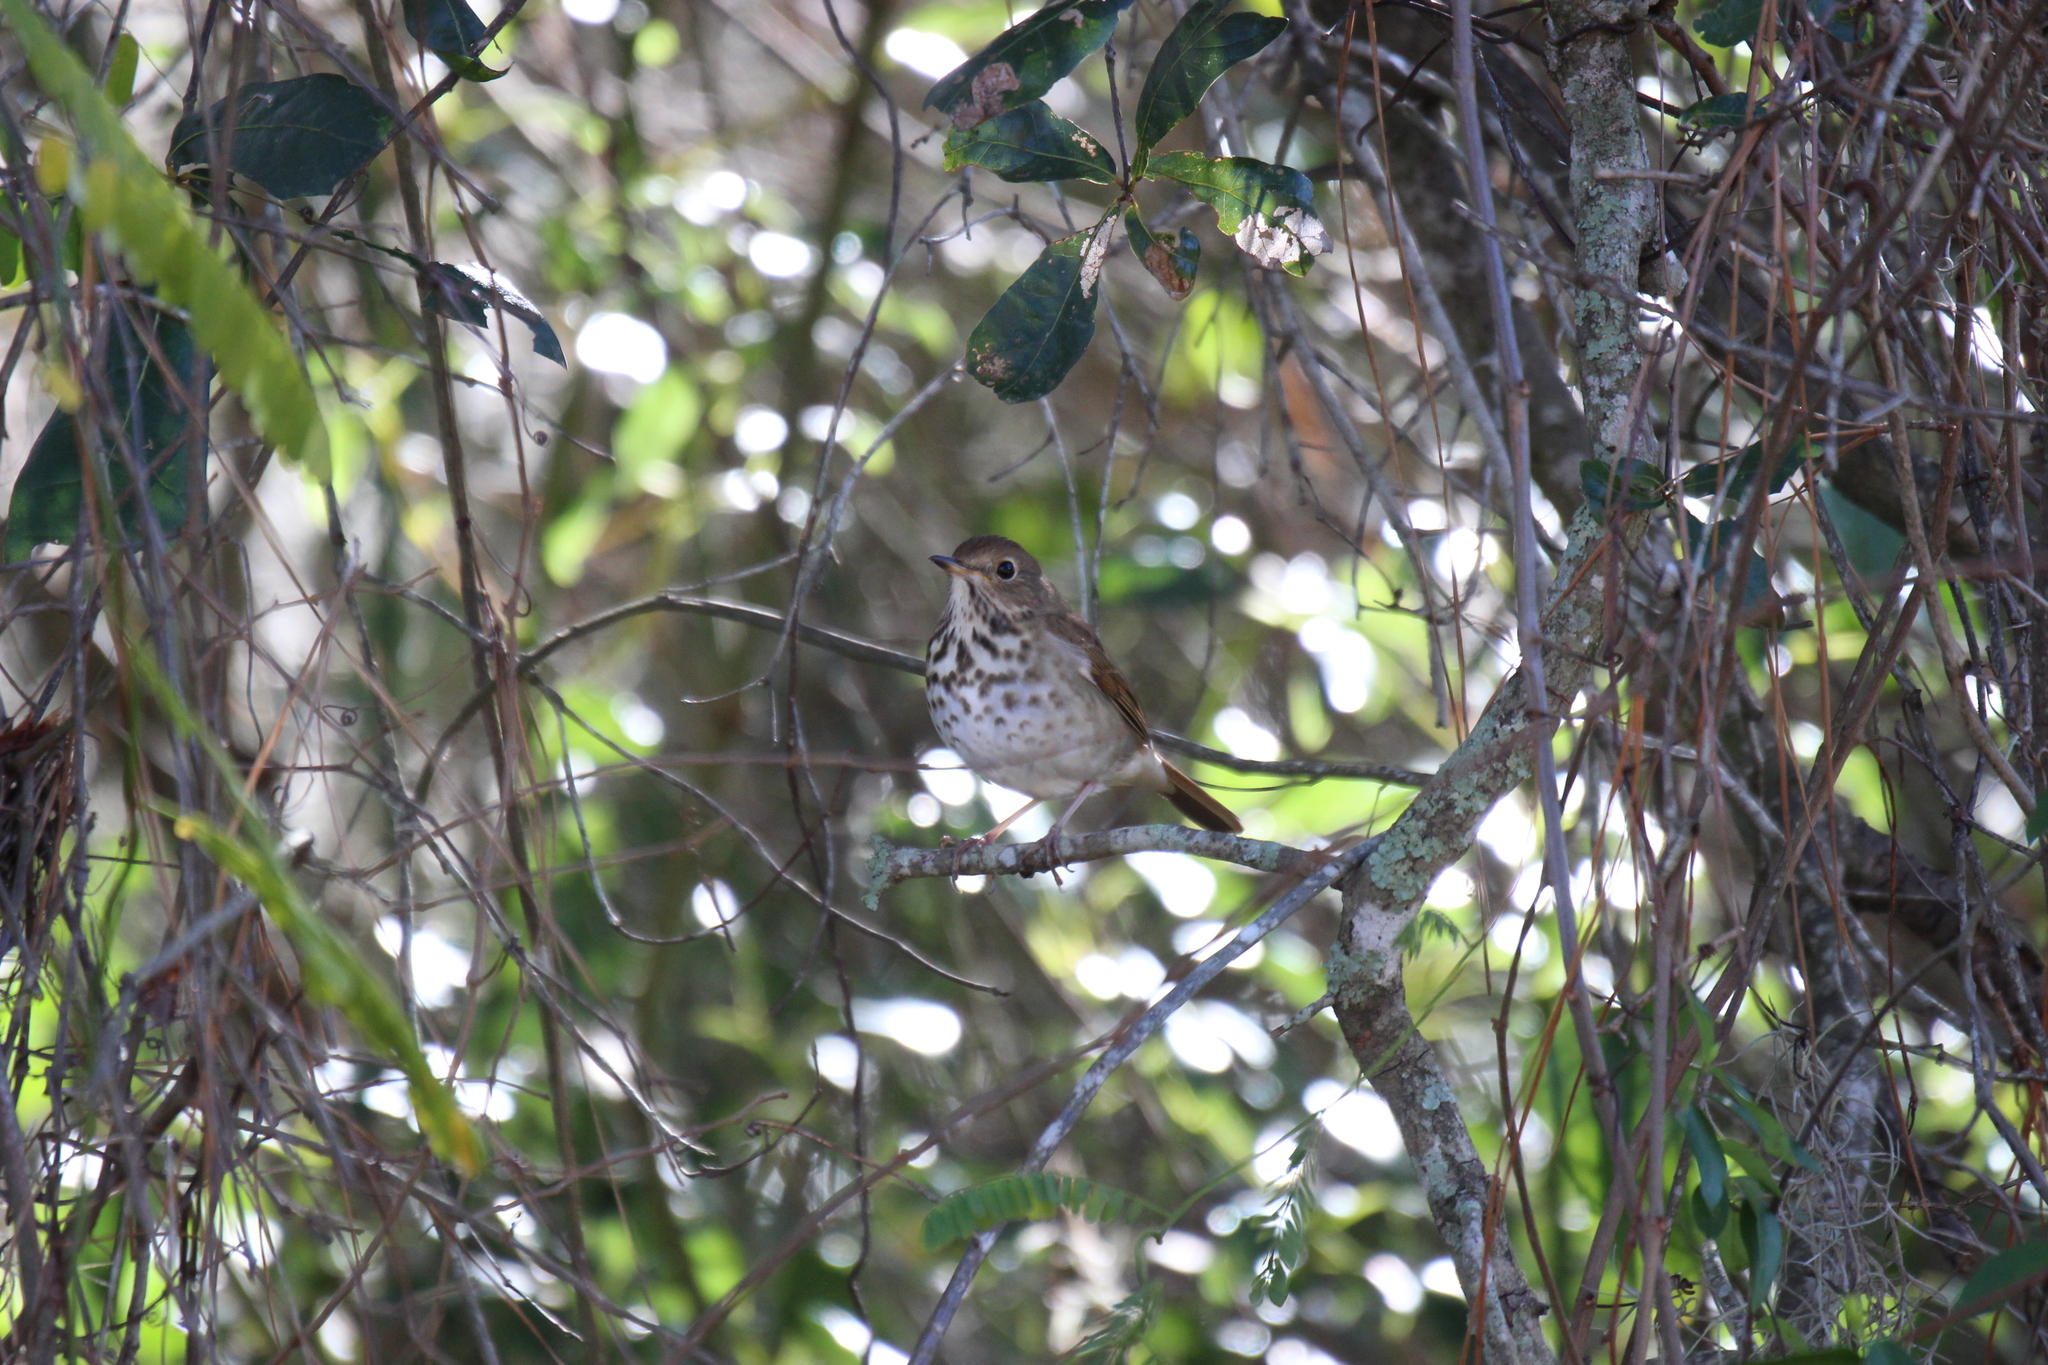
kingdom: Animalia
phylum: Chordata
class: Aves
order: Passeriformes
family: Turdidae
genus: Catharus
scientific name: Catharus guttatus
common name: Hermit thrush
